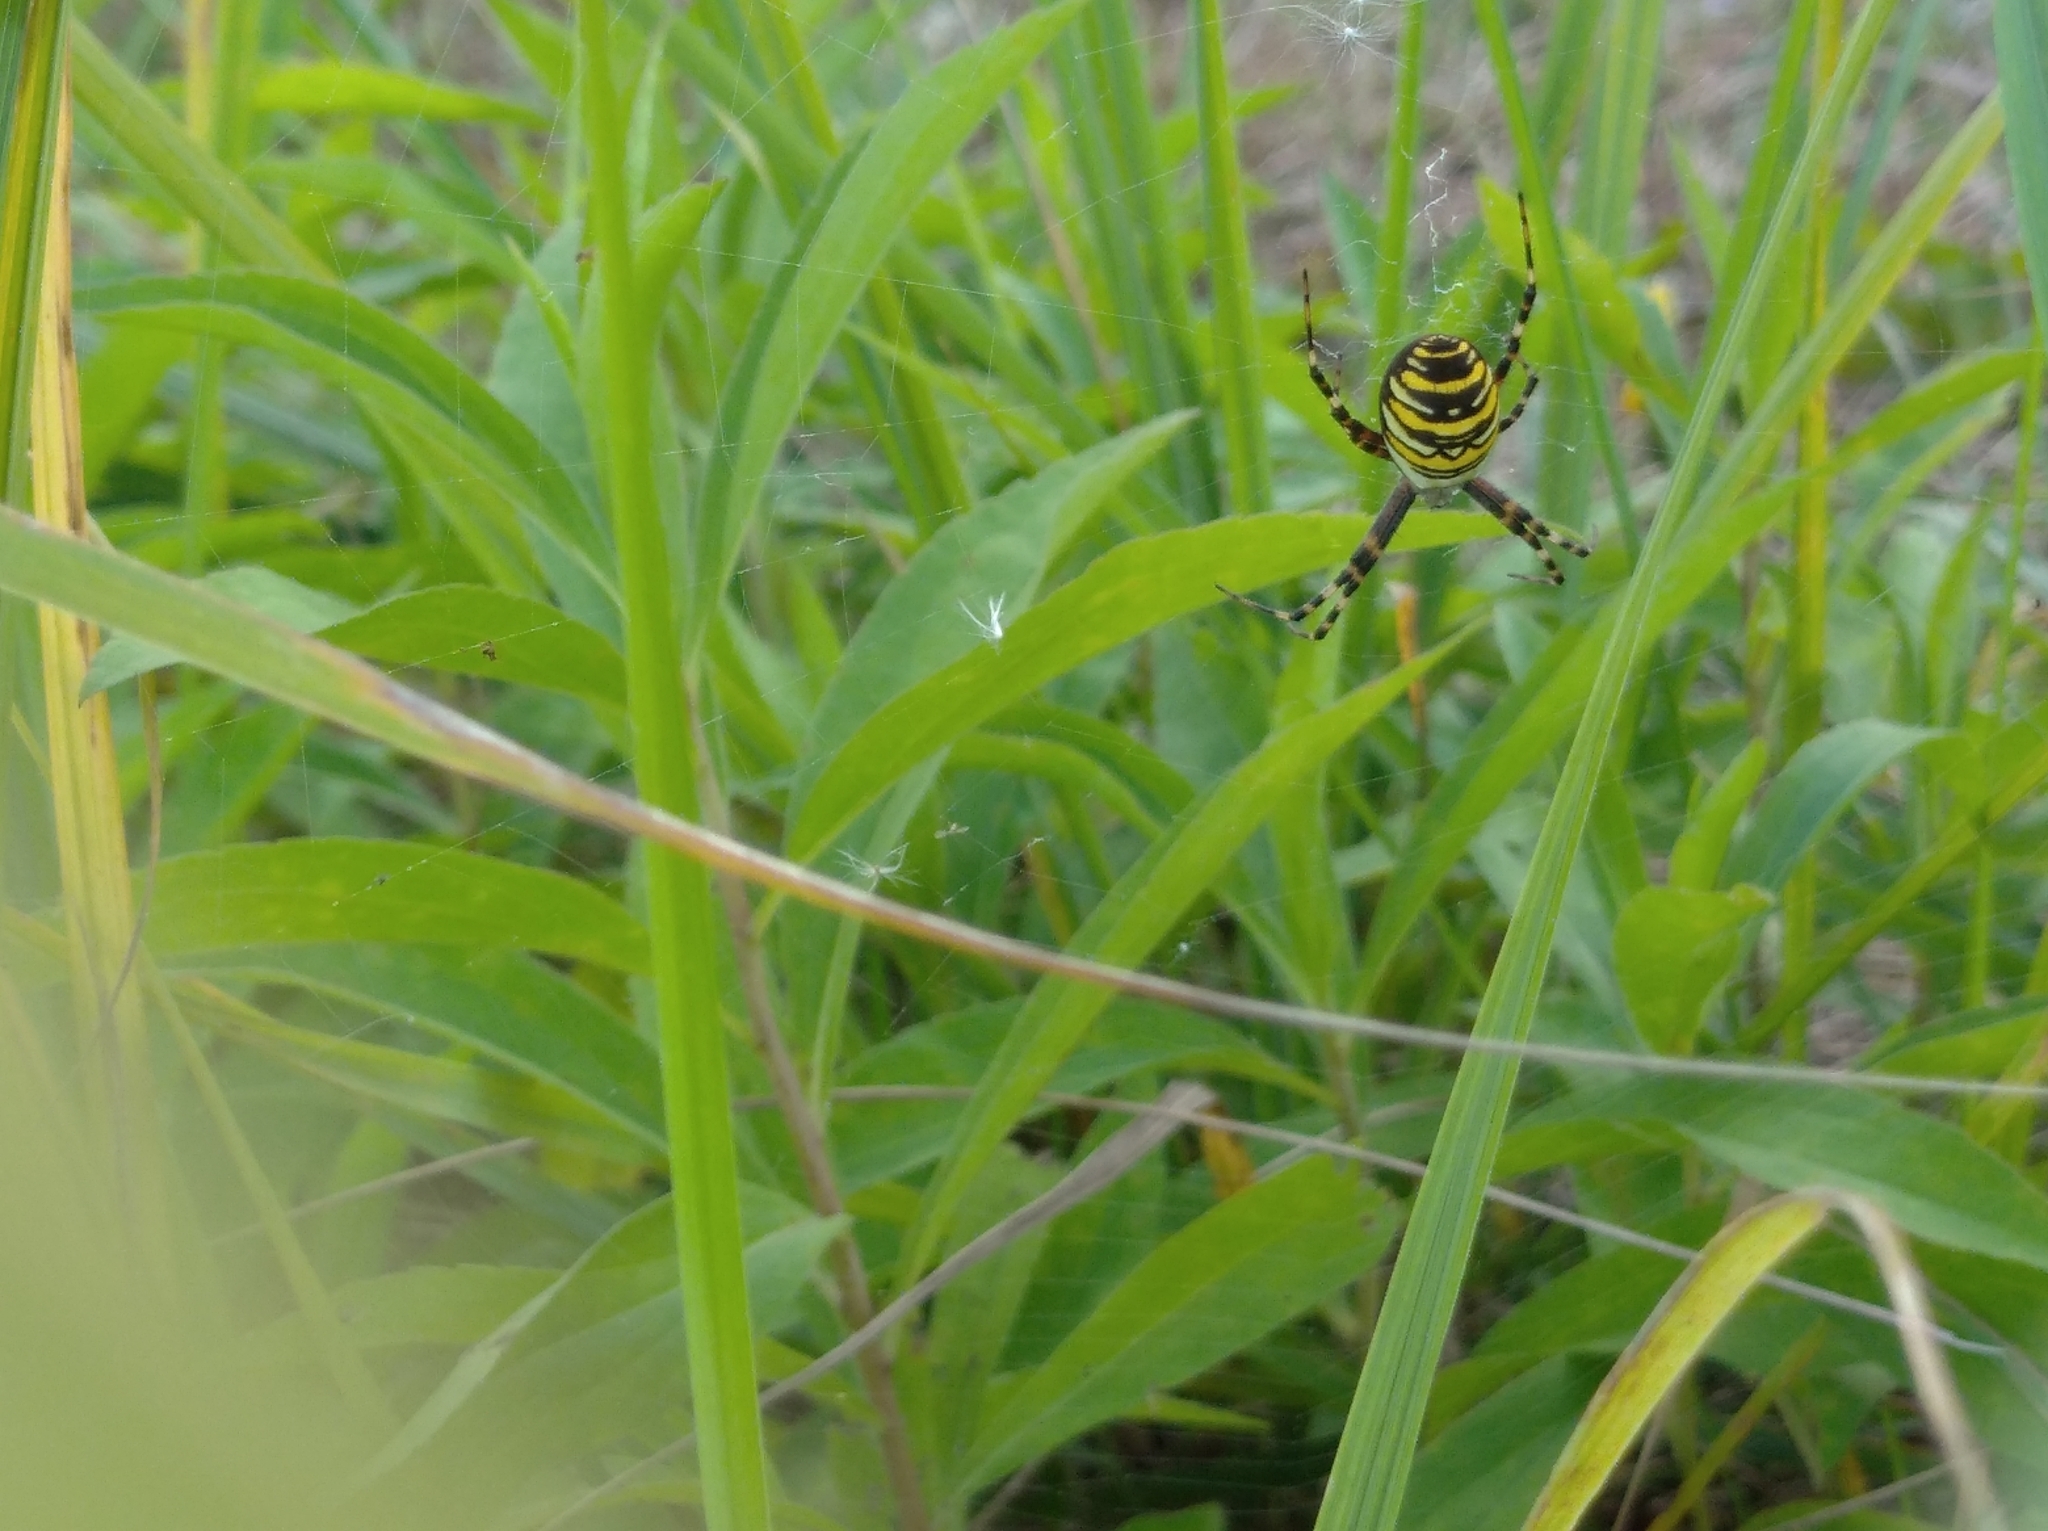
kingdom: Animalia
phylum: Arthropoda
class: Arachnida
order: Araneae
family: Araneidae
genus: Argiope
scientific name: Argiope bruennichi
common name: Wasp spider
